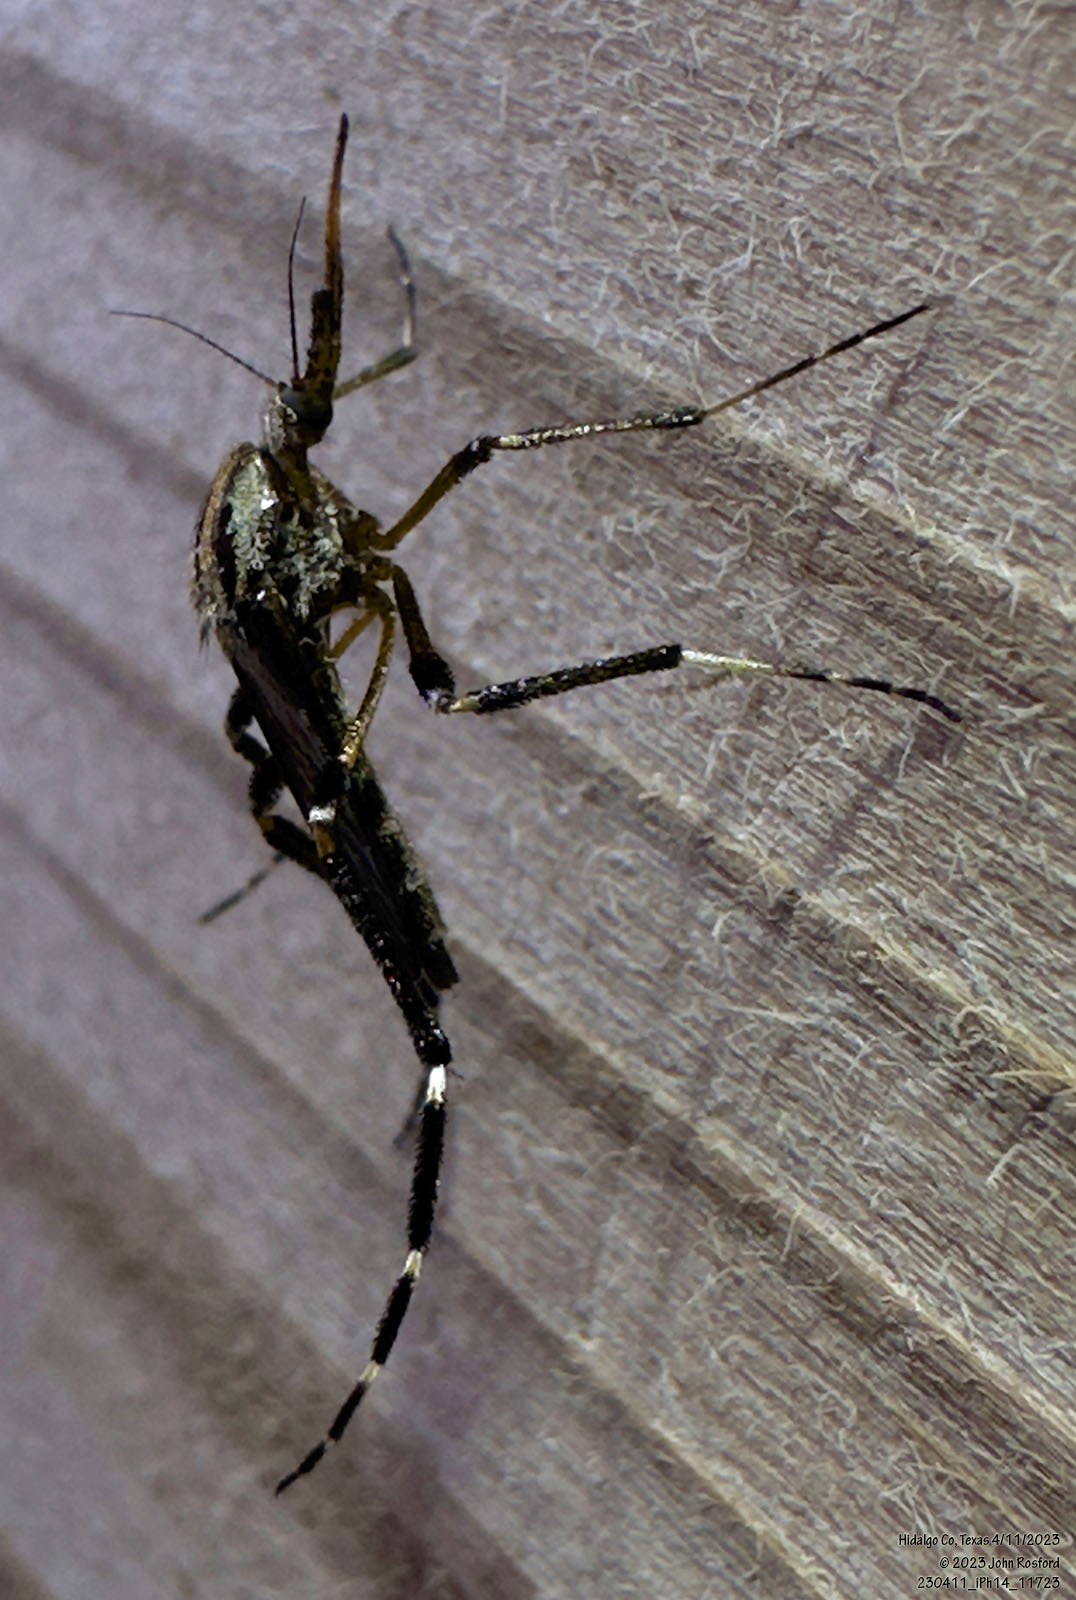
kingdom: Animalia
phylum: Arthropoda
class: Insecta
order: Diptera
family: Culicidae
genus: Psorophora
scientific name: Psorophora ciliata
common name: Gallinipper
